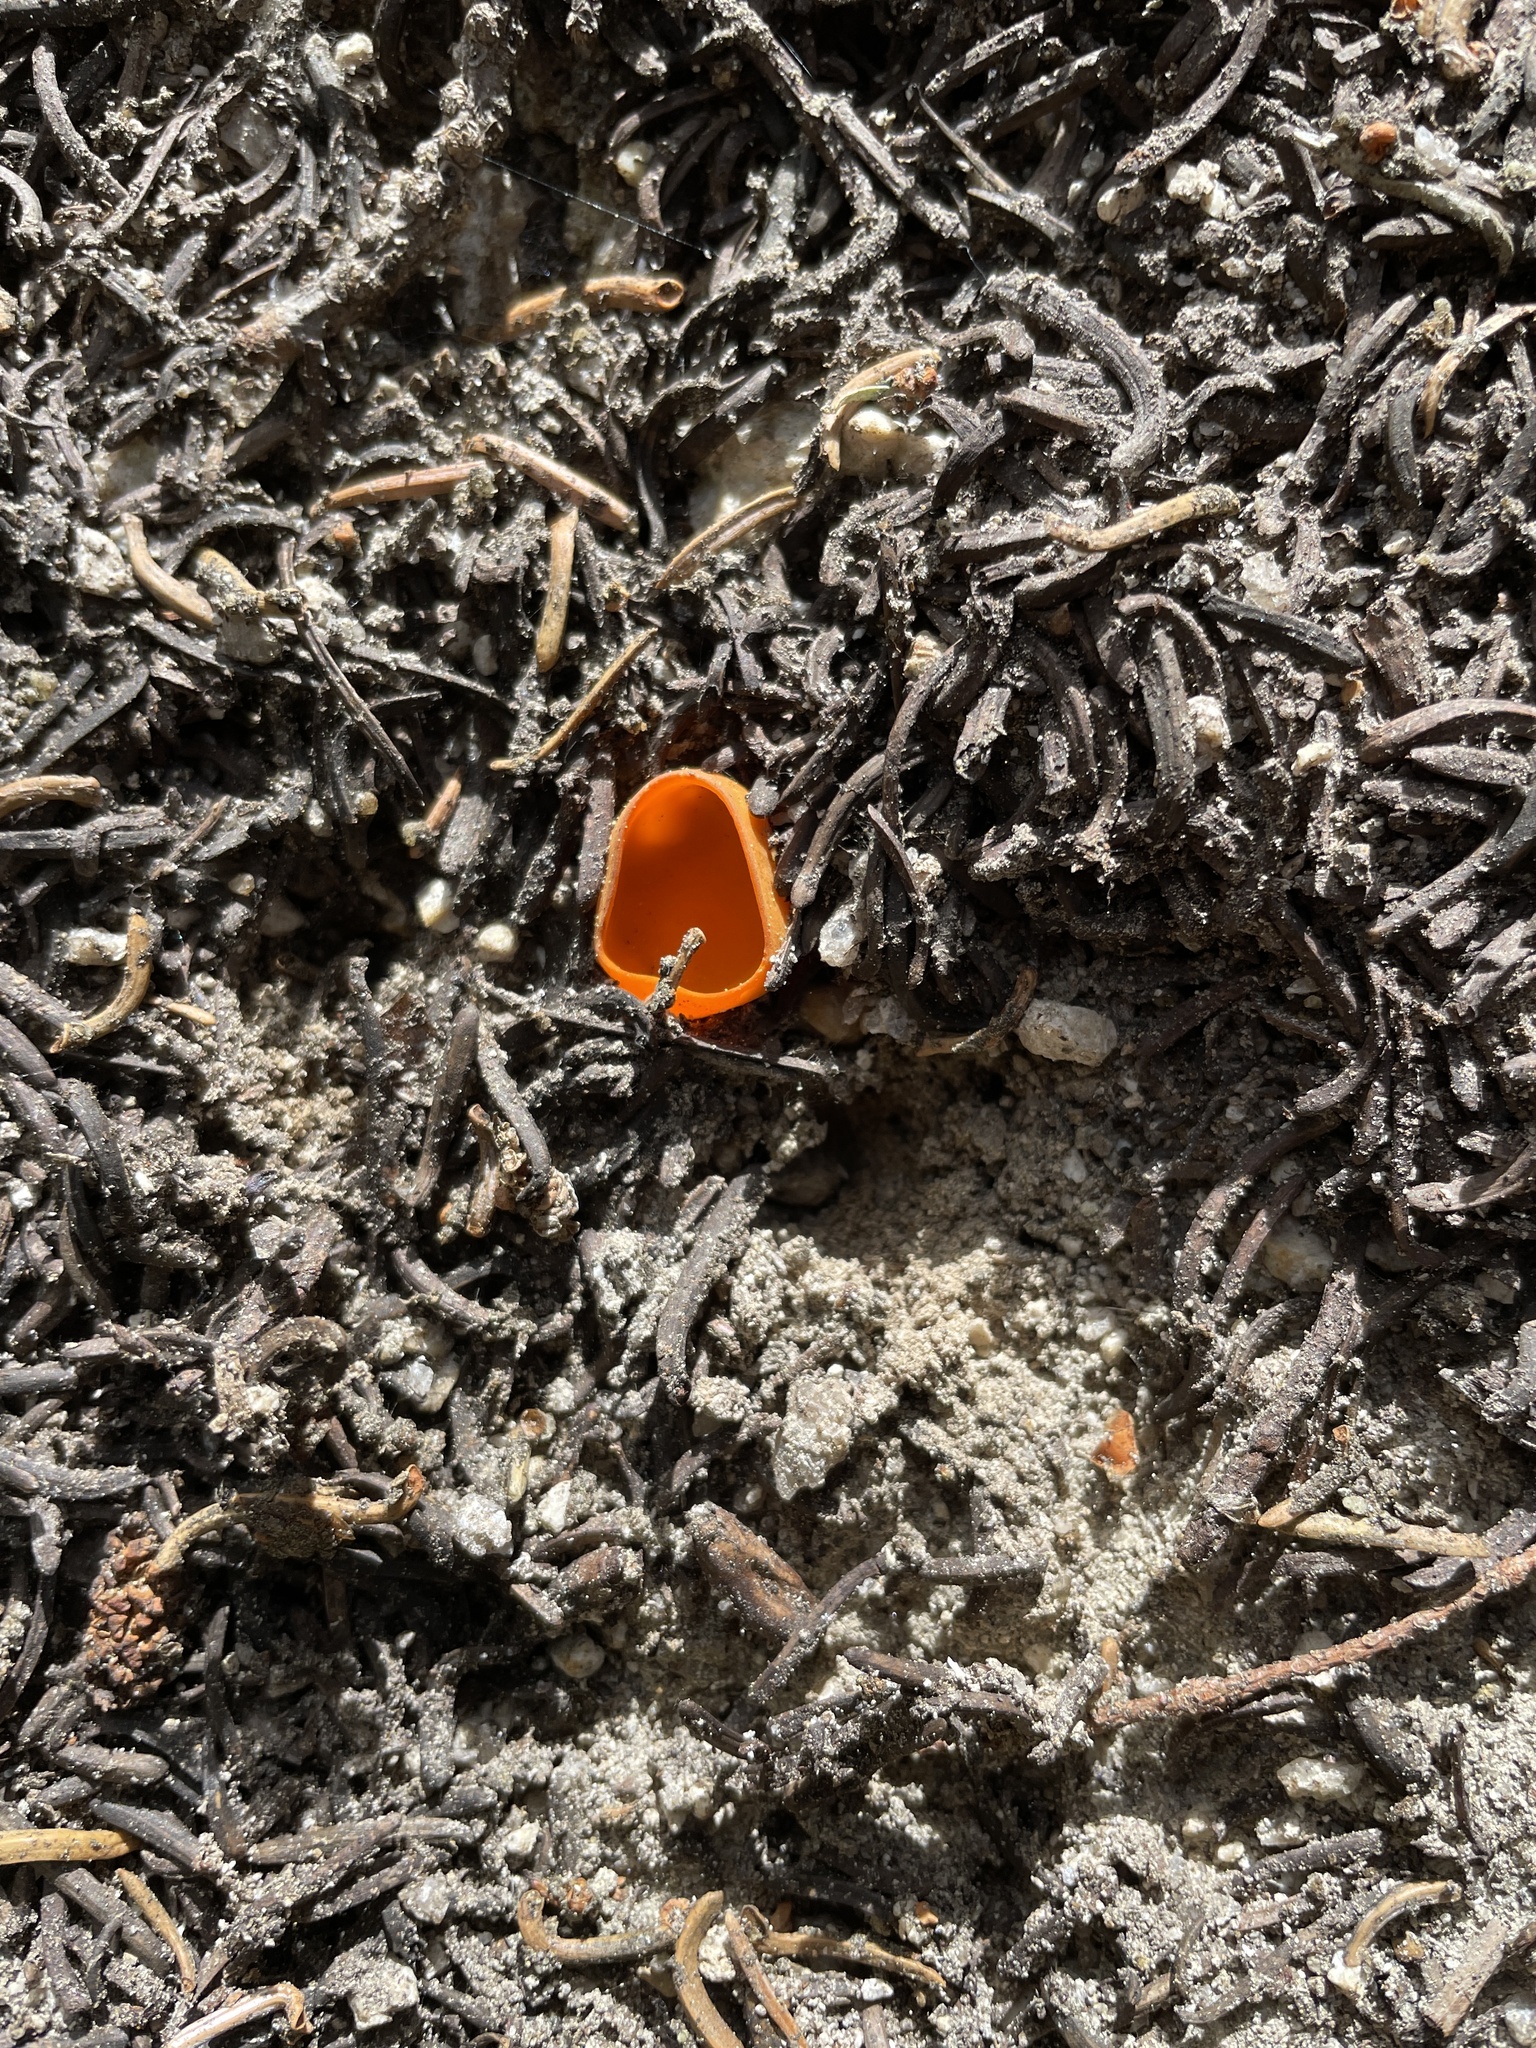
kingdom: Fungi
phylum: Ascomycota
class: Pezizomycetes
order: Pezizales
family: Caloscyphaceae
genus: Caloscypha
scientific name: Caloscypha fulgens
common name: Golden cup
